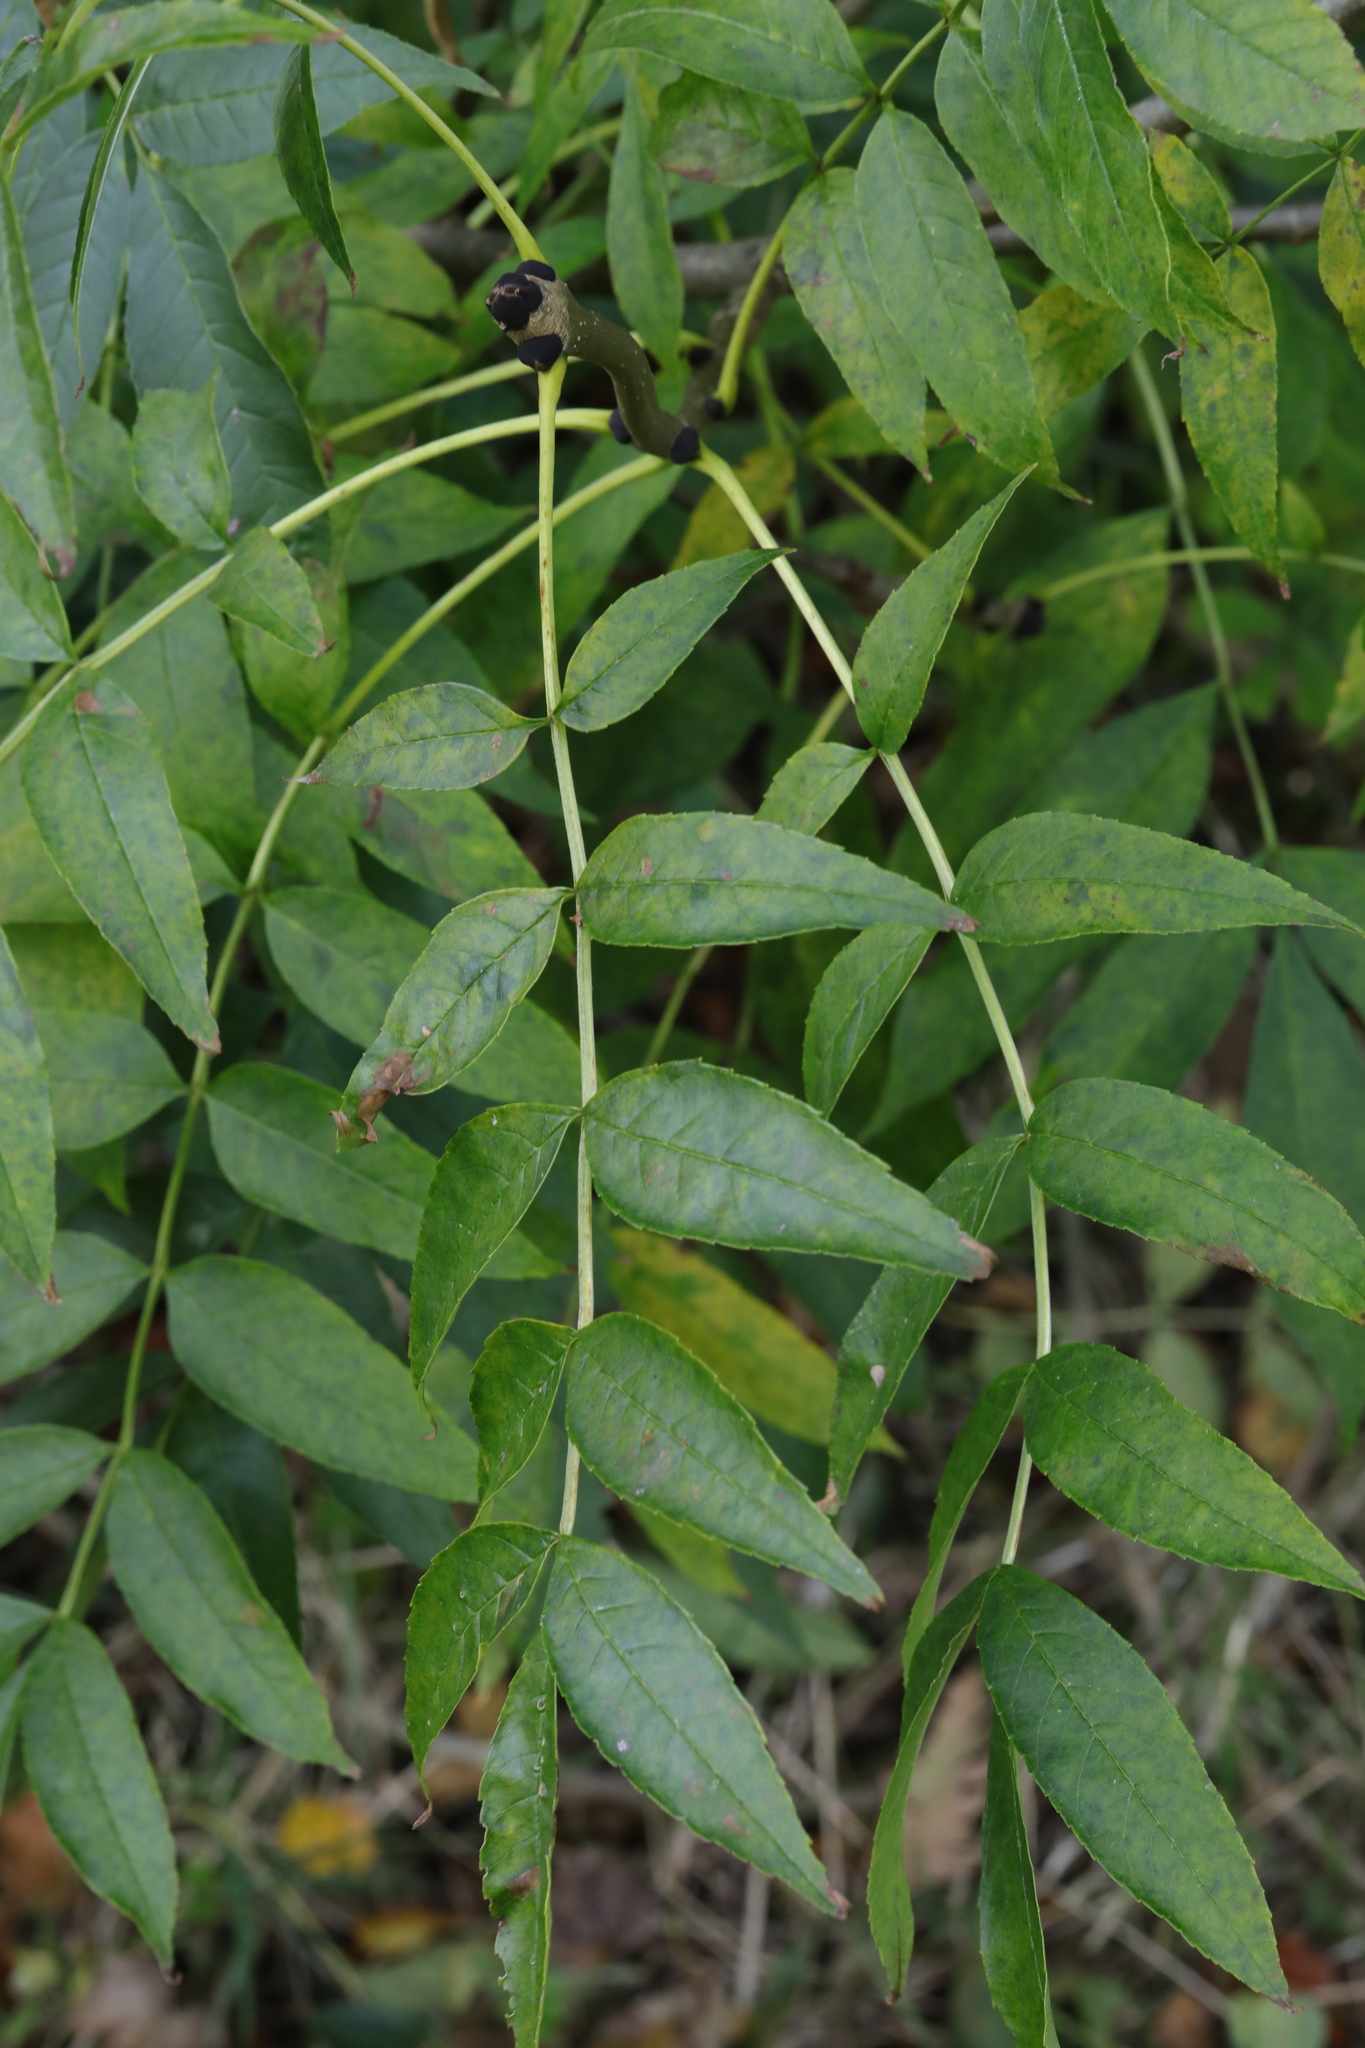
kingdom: Plantae
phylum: Tracheophyta
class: Magnoliopsida
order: Lamiales
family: Oleaceae
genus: Fraxinus
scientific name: Fraxinus excelsior
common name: European ash
